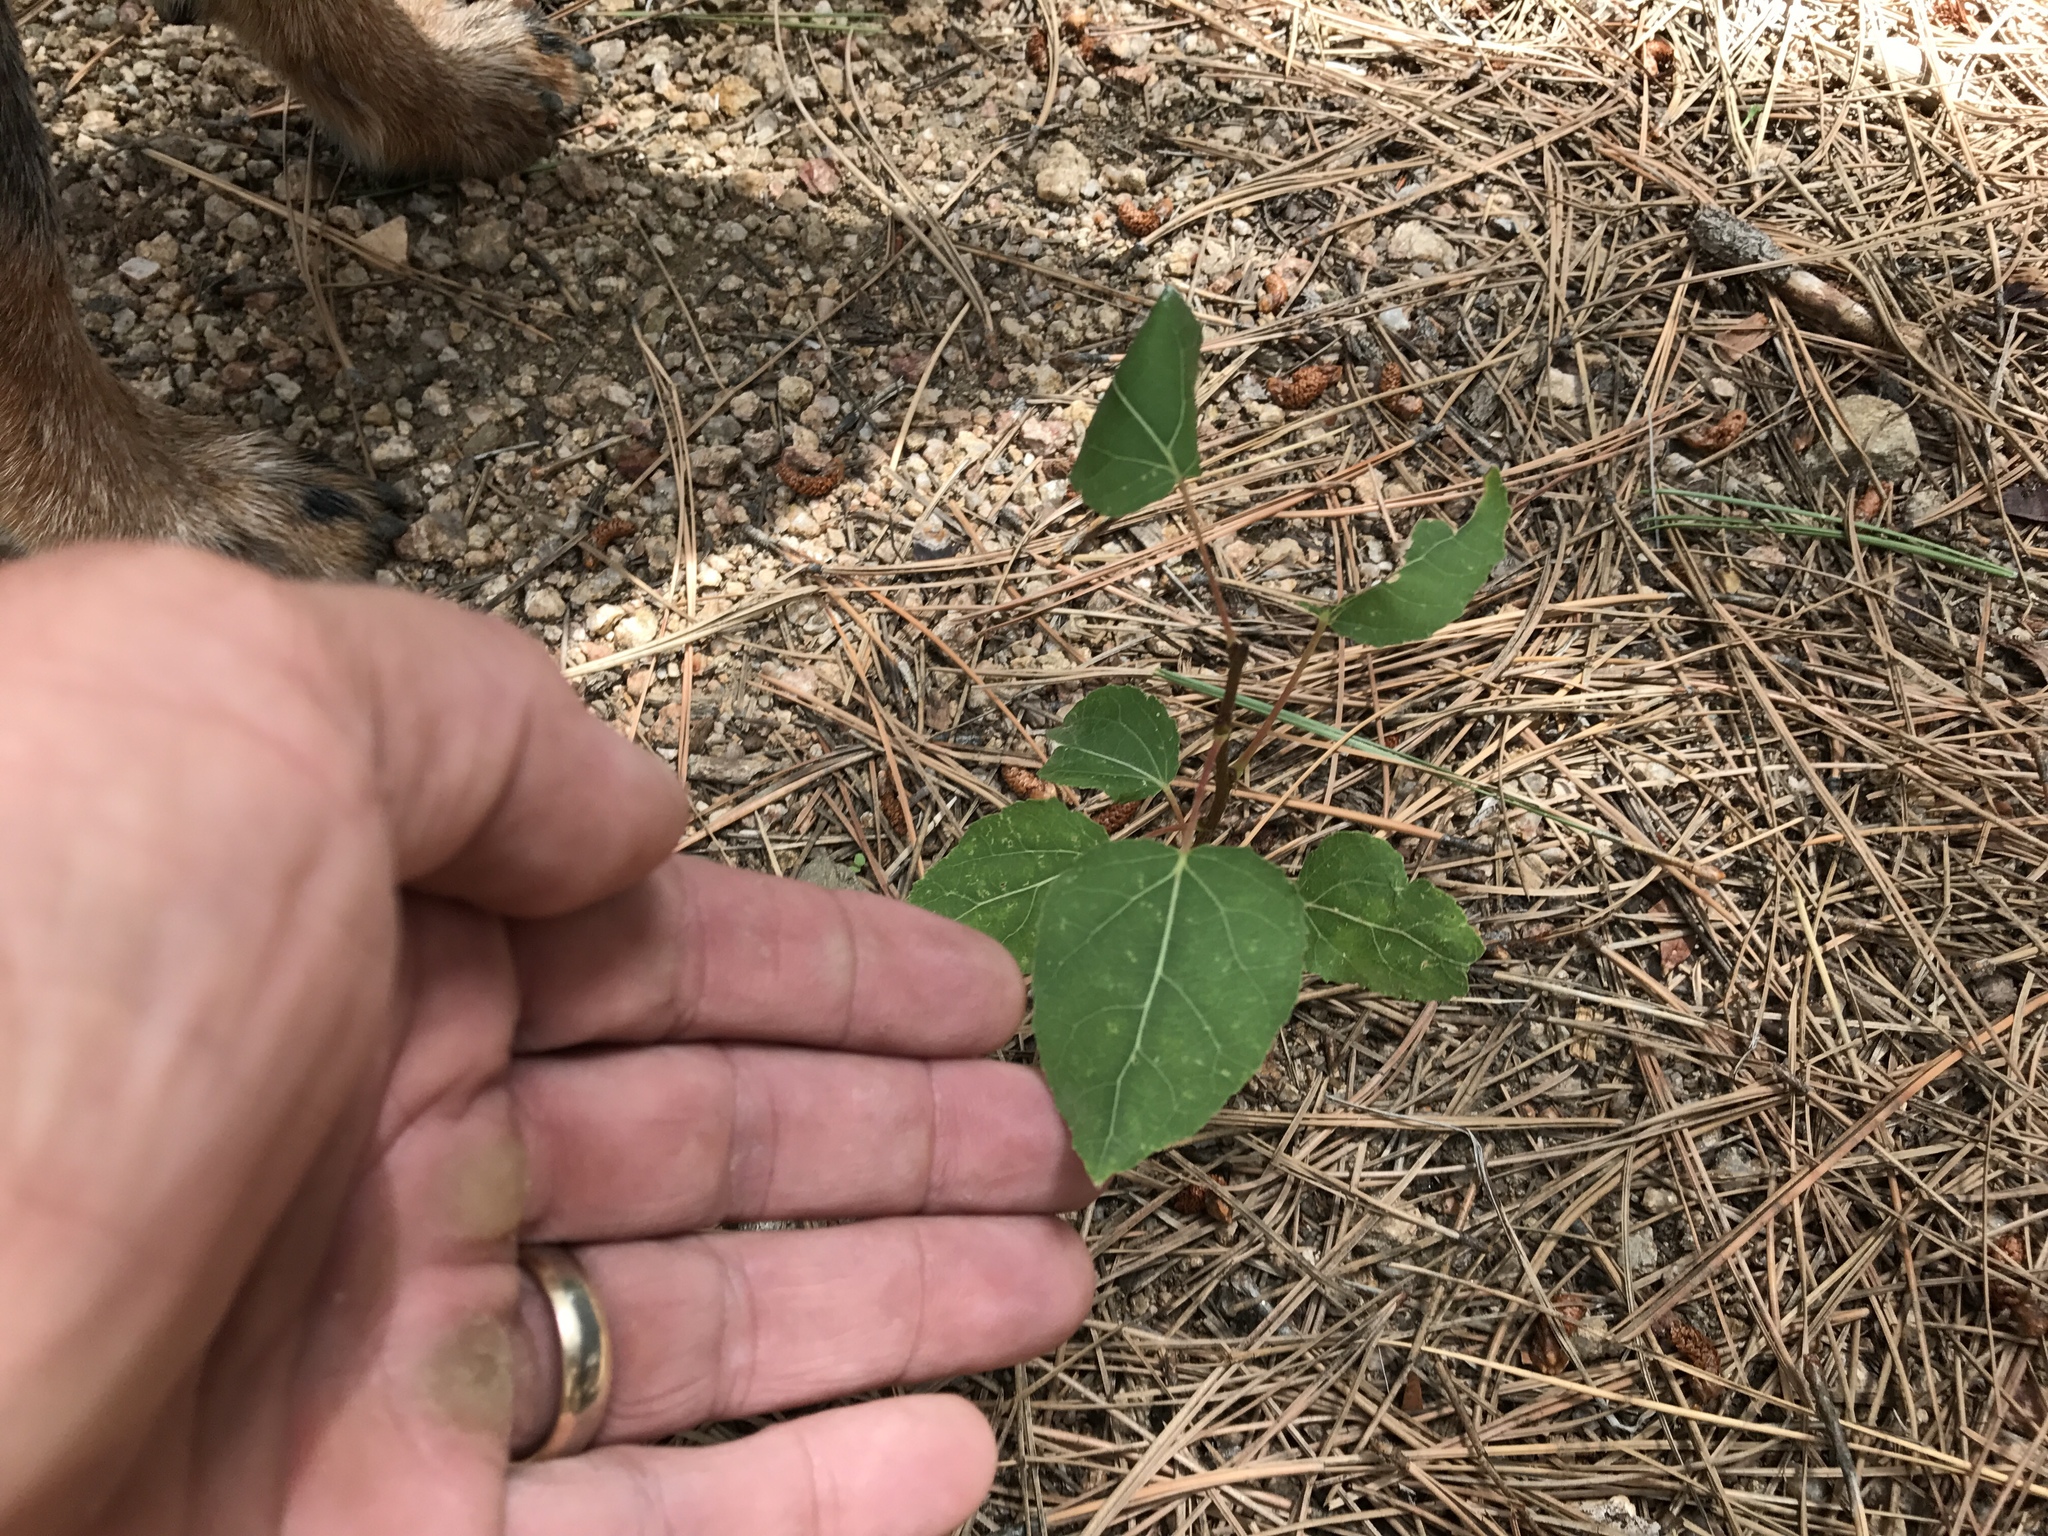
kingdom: Plantae
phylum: Tracheophyta
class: Magnoliopsida
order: Malpighiales
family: Salicaceae
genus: Populus
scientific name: Populus tremuloides
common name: Quaking aspen
